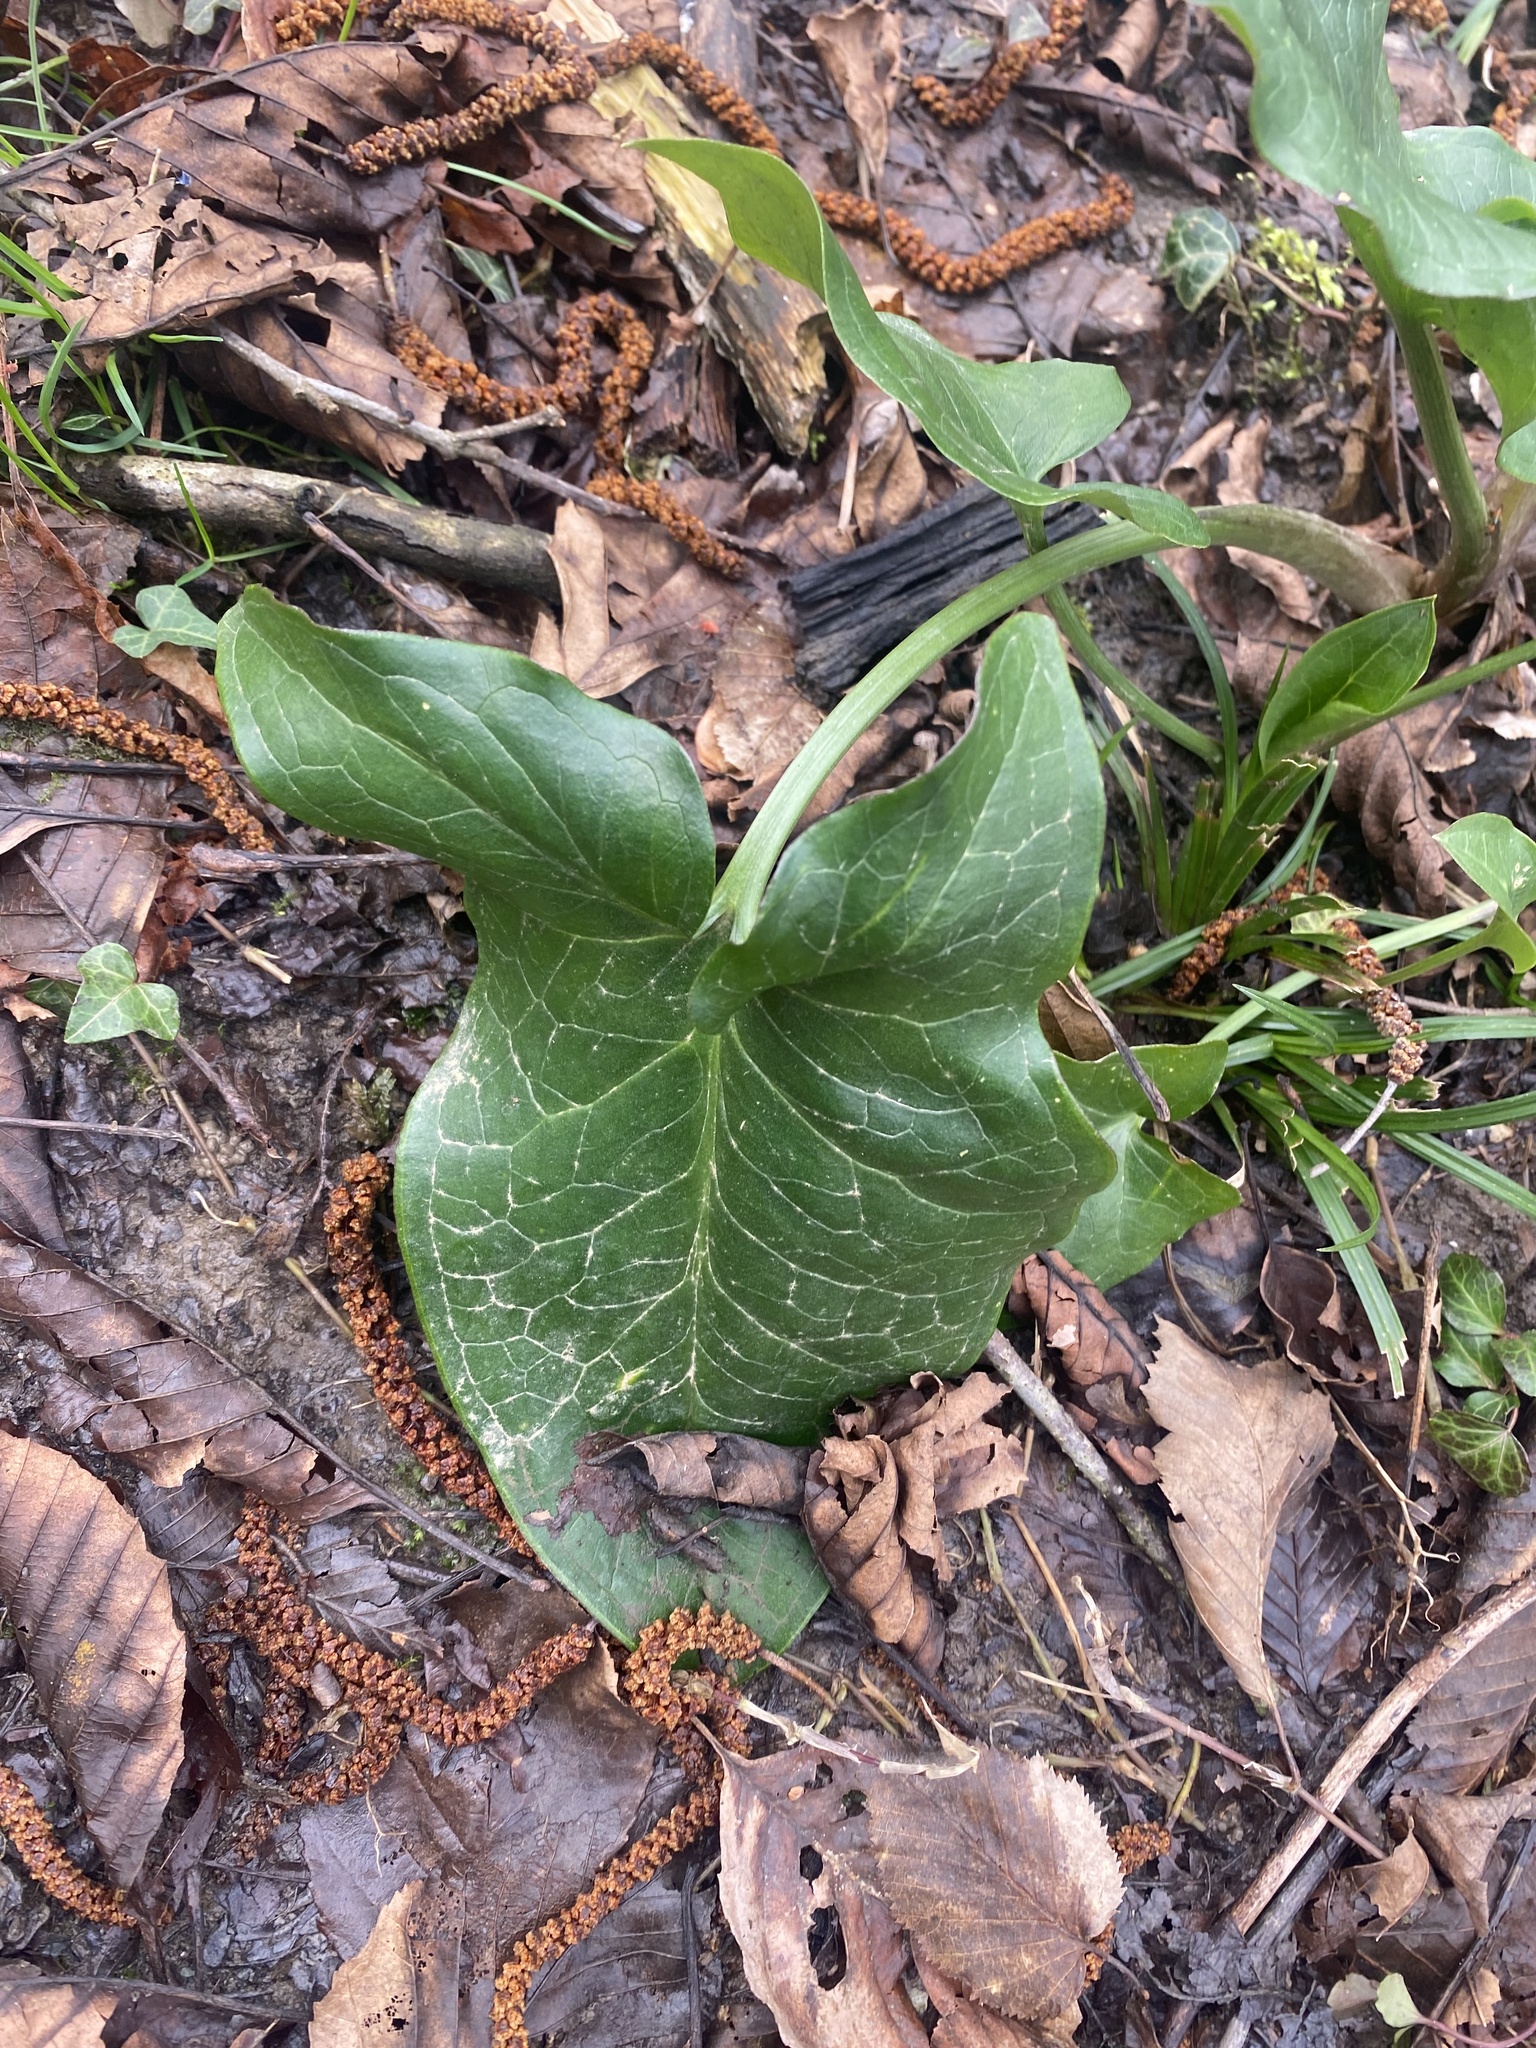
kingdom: Plantae
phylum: Tracheophyta
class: Liliopsida
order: Alismatales
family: Araceae
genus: Arum
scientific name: Arum italicum
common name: Italian lords-and-ladies
